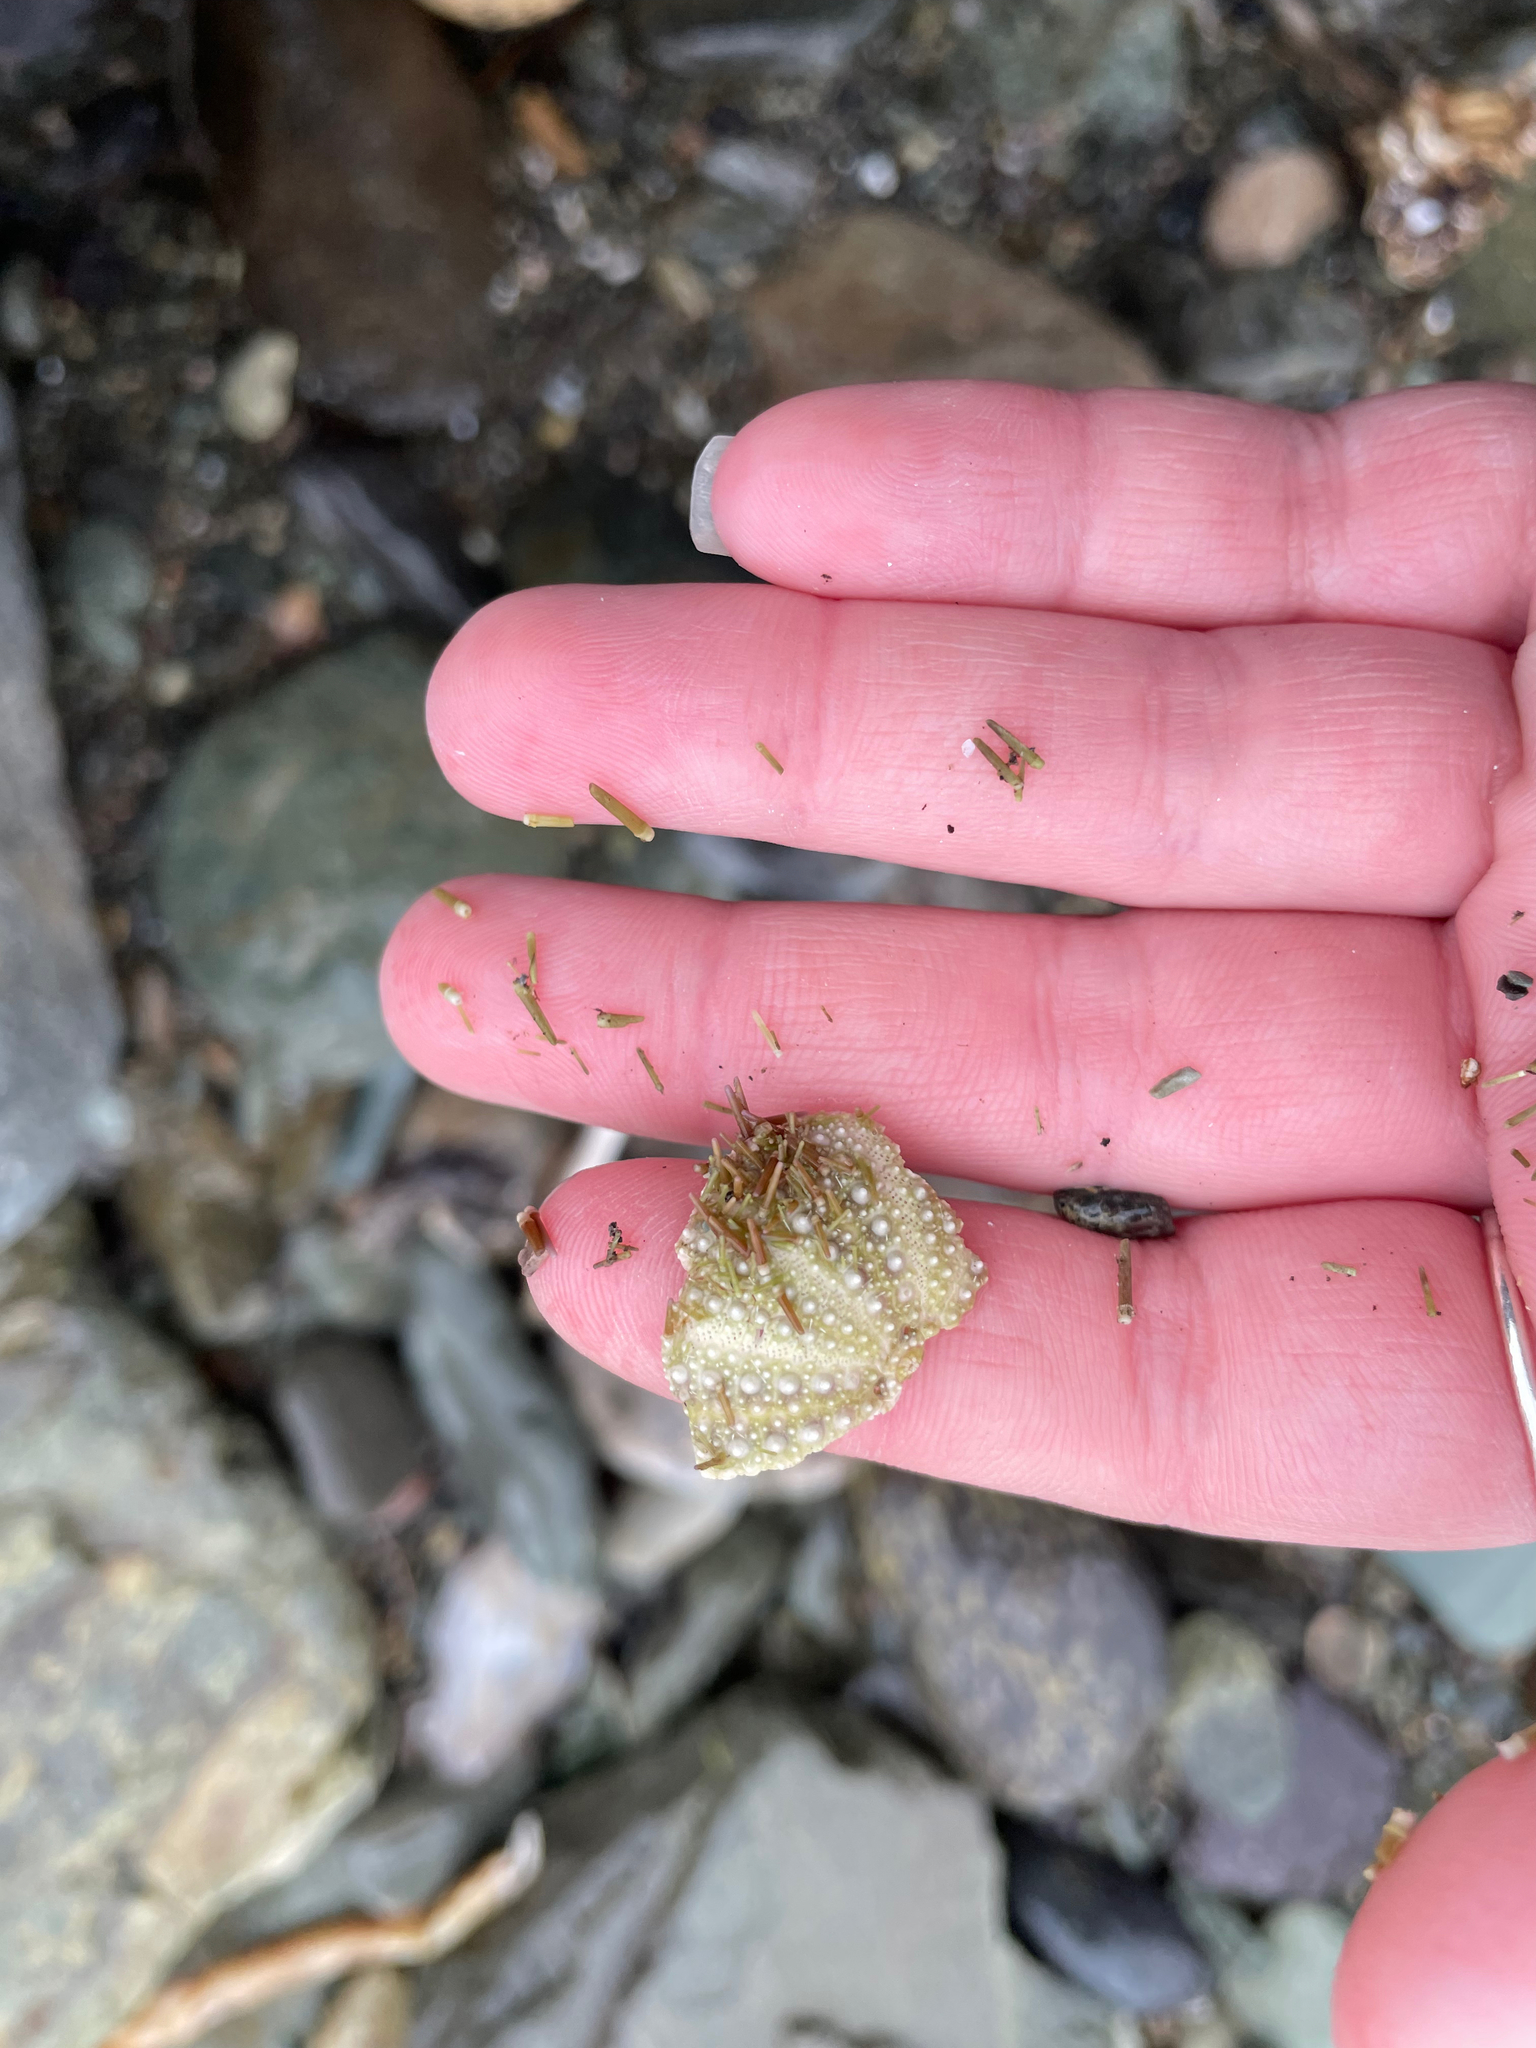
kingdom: Animalia
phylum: Echinodermata
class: Echinoidea
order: Camarodonta
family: Strongylocentrotidae
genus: Strongylocentrotus
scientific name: Strongylocentrotus droebachiensis
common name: Northern sea urchin
